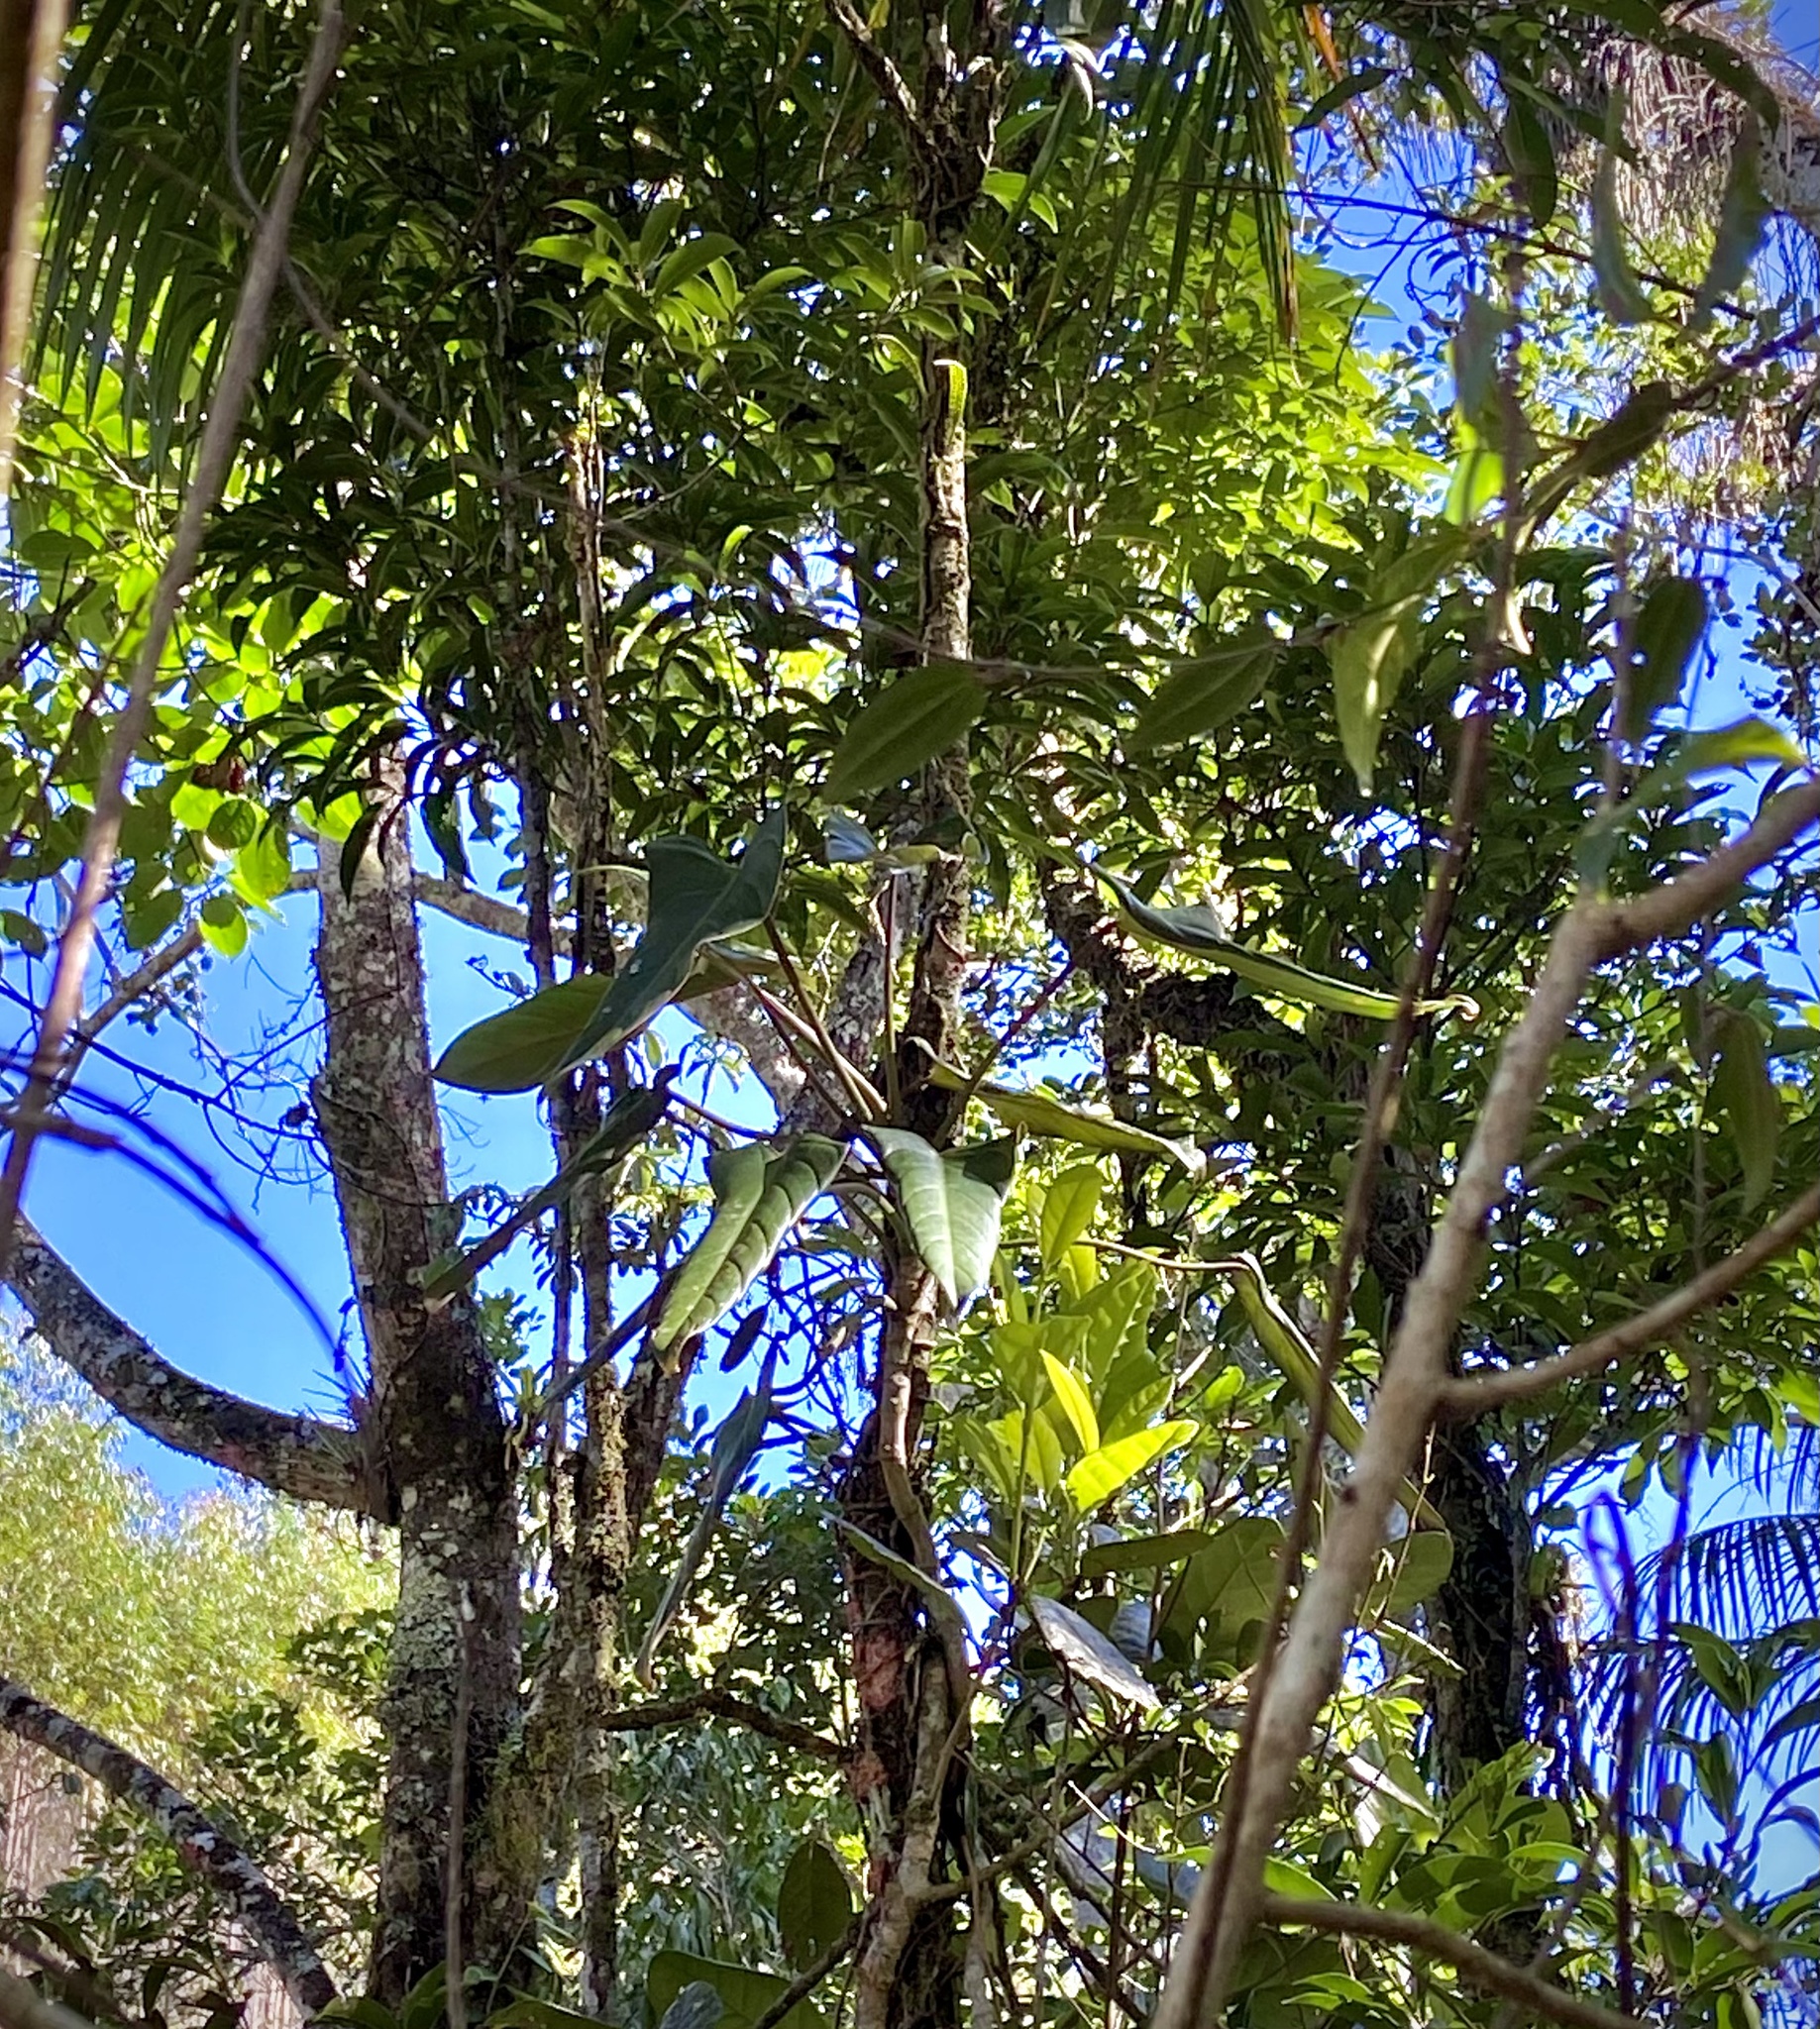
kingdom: Plantae
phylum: Tracheophyta
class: Liliopsida
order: Alismatales
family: Araceae
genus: Philodendron
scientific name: Philodendron vargealtense
